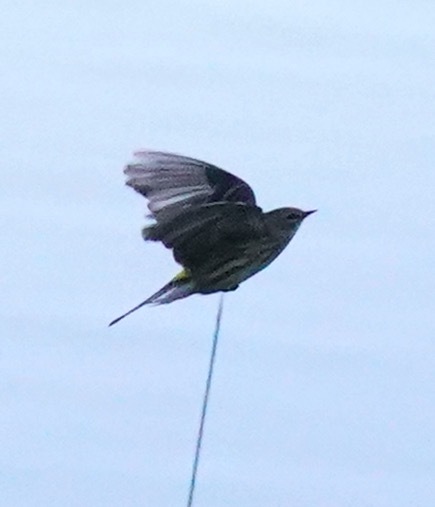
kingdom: Animalia
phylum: Chordata
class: Aves
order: Passeriformes
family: Parulidae
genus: Setophaga
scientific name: Setophaga coronata
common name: Myrtle warbler
